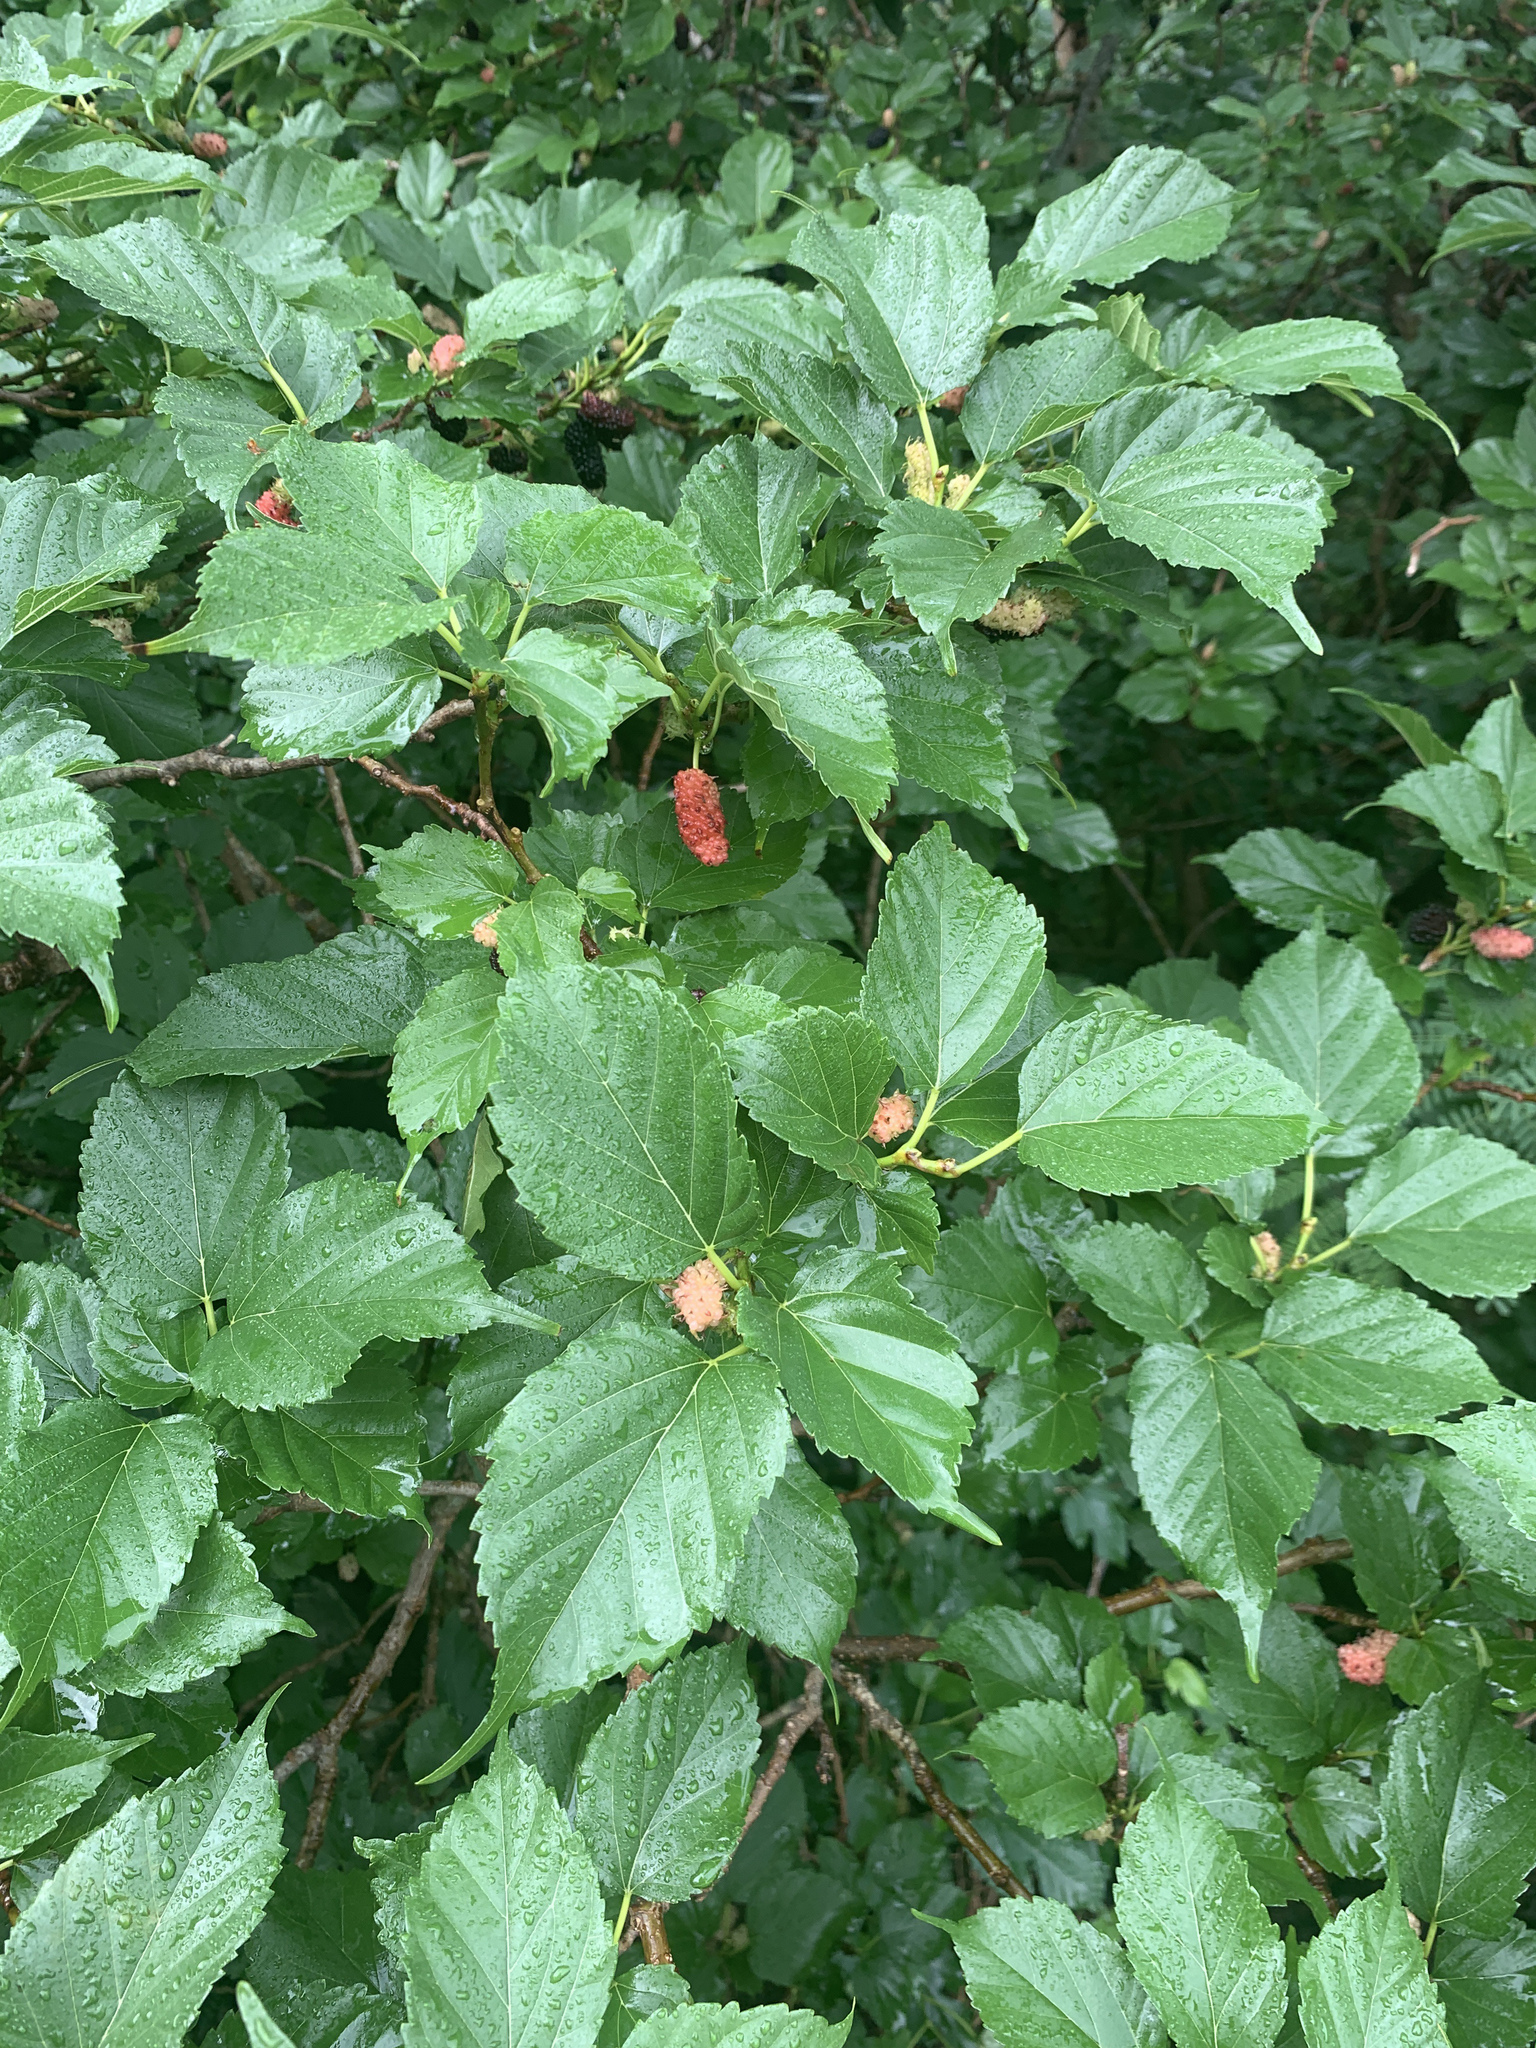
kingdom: Plantae
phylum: Tracheophyta
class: Magnoliopsida
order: Rosales
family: Moraceae
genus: Morus
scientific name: Morus indica
